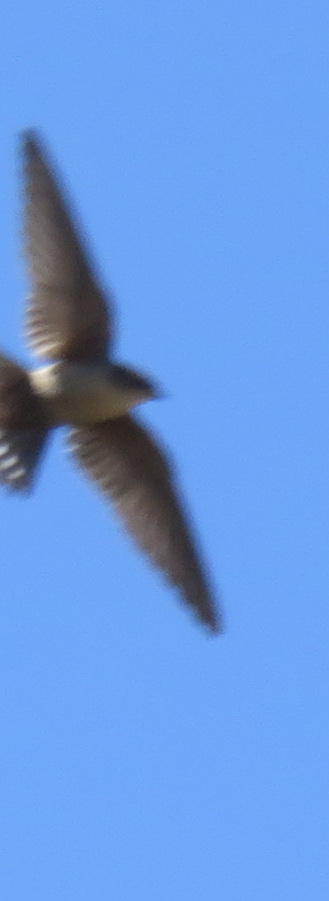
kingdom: Animalia
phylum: Chordata
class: Aves
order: Passeriformes
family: Hirundinidae
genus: Ptyonoprogne
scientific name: Ptyonoprogne fuligula
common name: Rock martin
